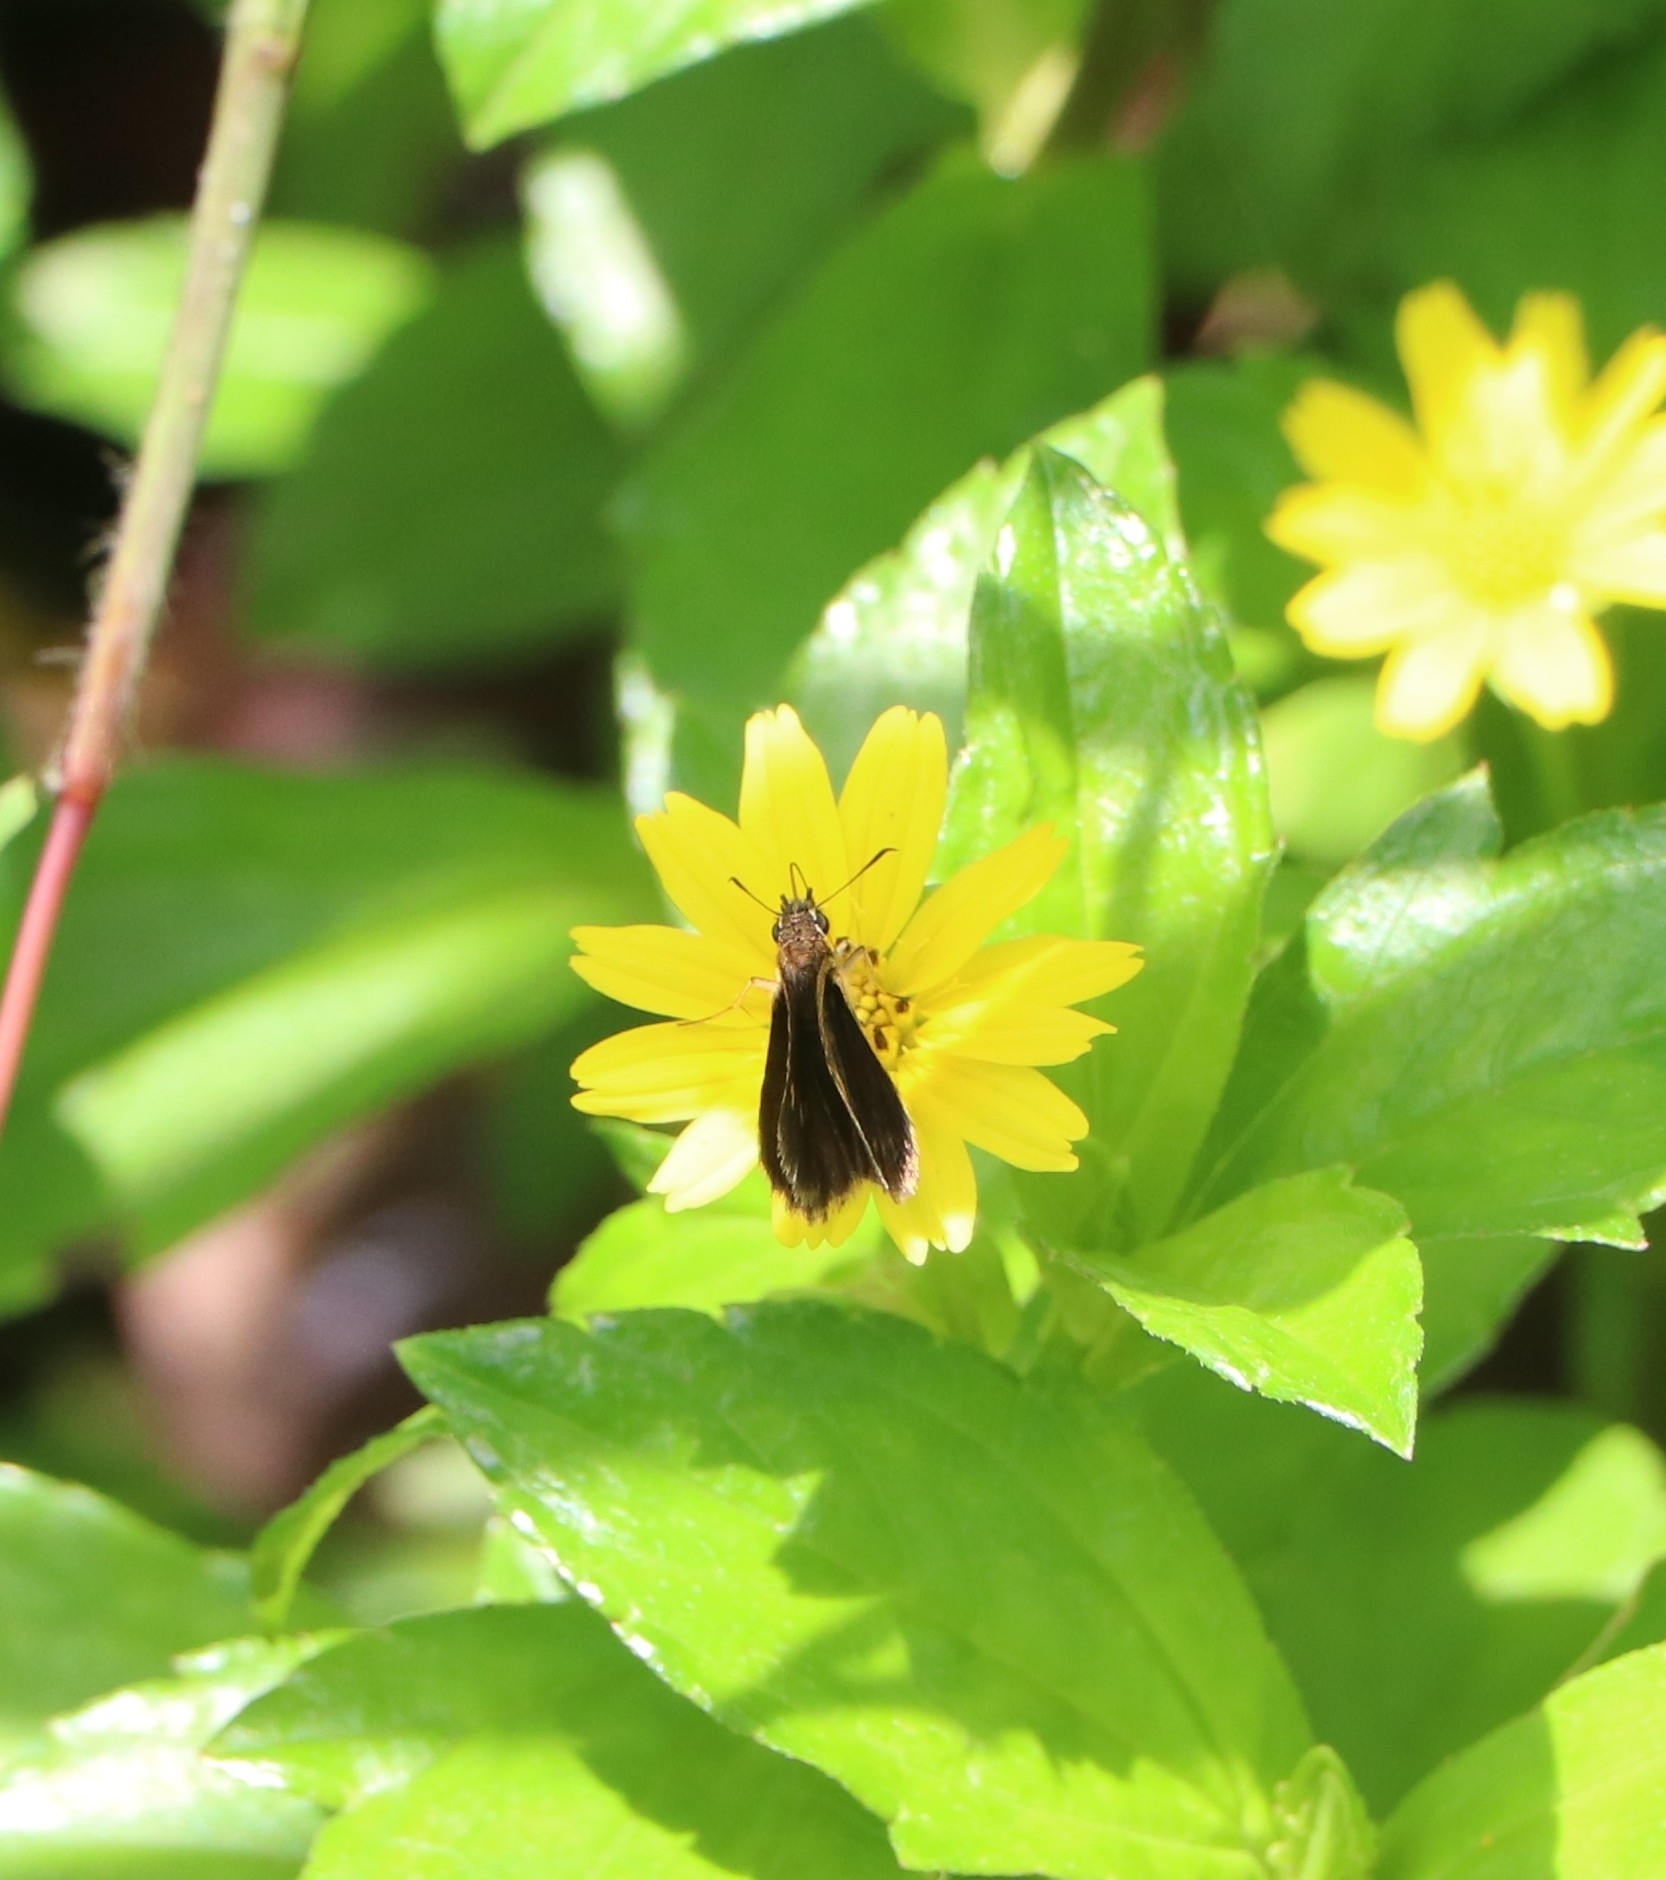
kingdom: Animalia
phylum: Arthropoda
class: Insecta
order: Lepidoptera
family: Hesperiidae
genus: Aeromachus
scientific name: Aeromachus pygmaeus
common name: Pygmy scrub hopper
